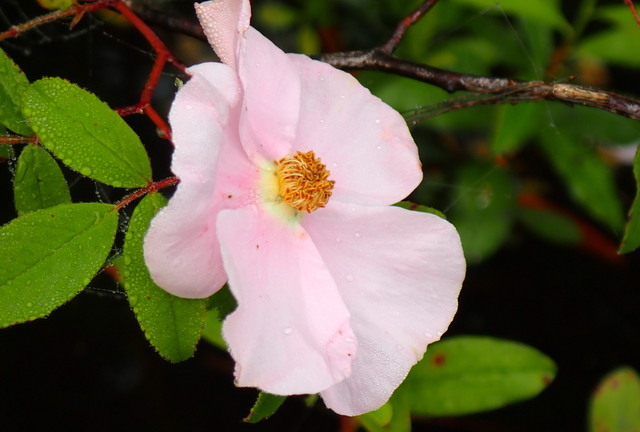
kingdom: Plantae
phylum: Tracheophyta
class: Magnoliopsida
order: Rosales
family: Rosaceae
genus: Rosa
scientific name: Rosa palustris
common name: Swamp rose
